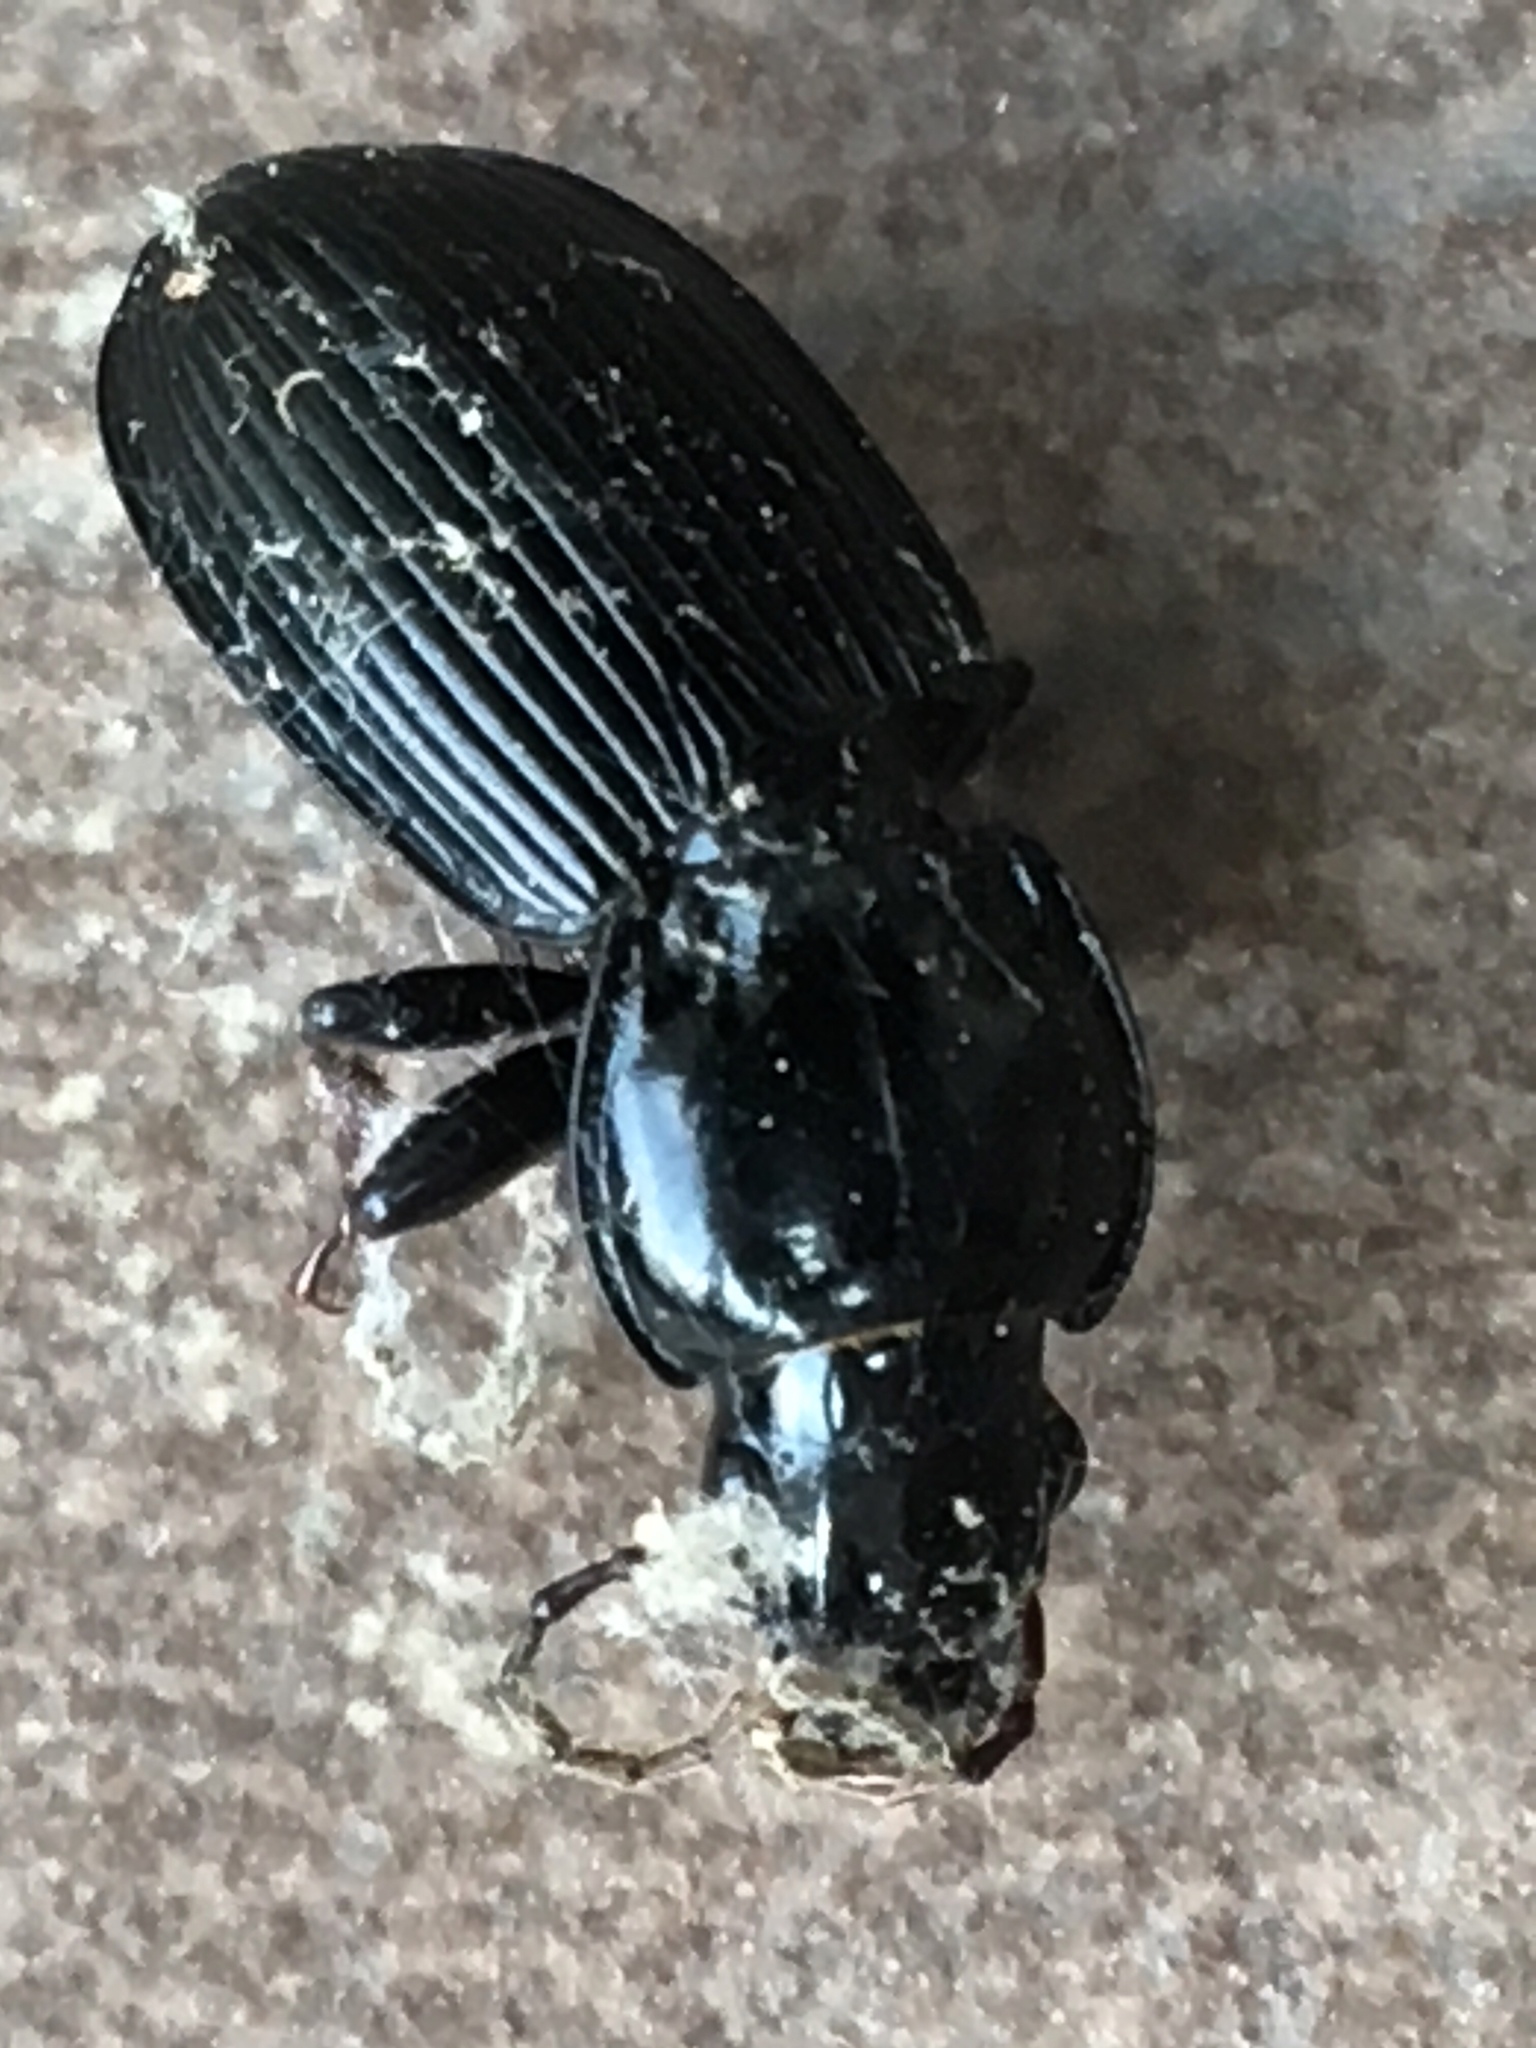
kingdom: Animalia
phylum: Arthropoda
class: Insecta
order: Coleoptera
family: Carabidae
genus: Pterostichus
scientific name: Pterostichus stygicus
